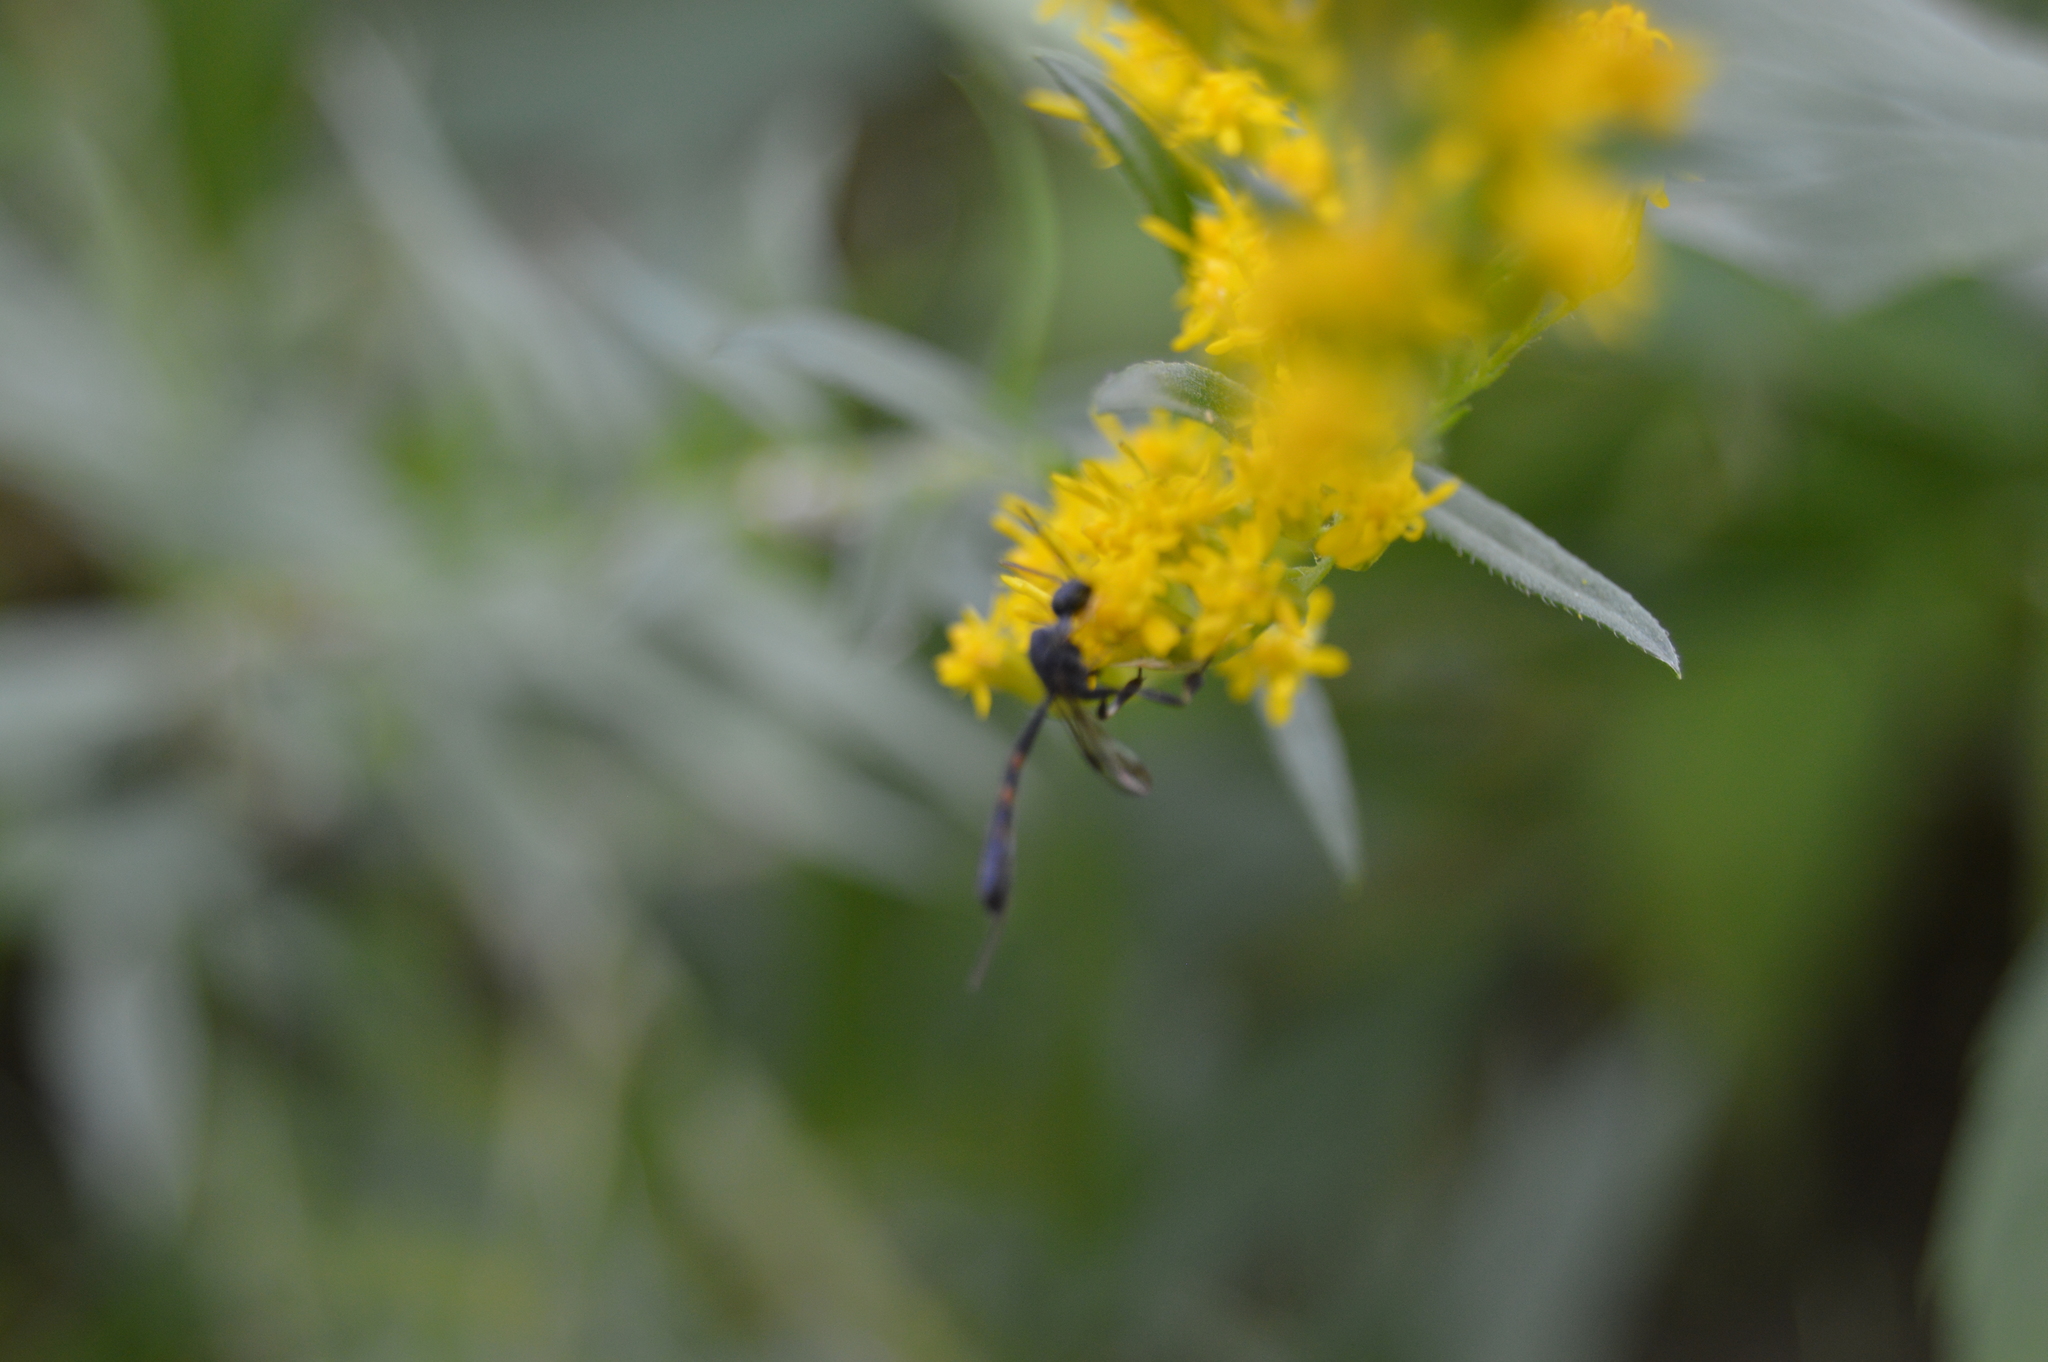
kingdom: Animalia
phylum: Arthropoda
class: Insecta
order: Hymenoptera
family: Gasteruptiidae
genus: Gasteruption
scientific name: Gasteruption
